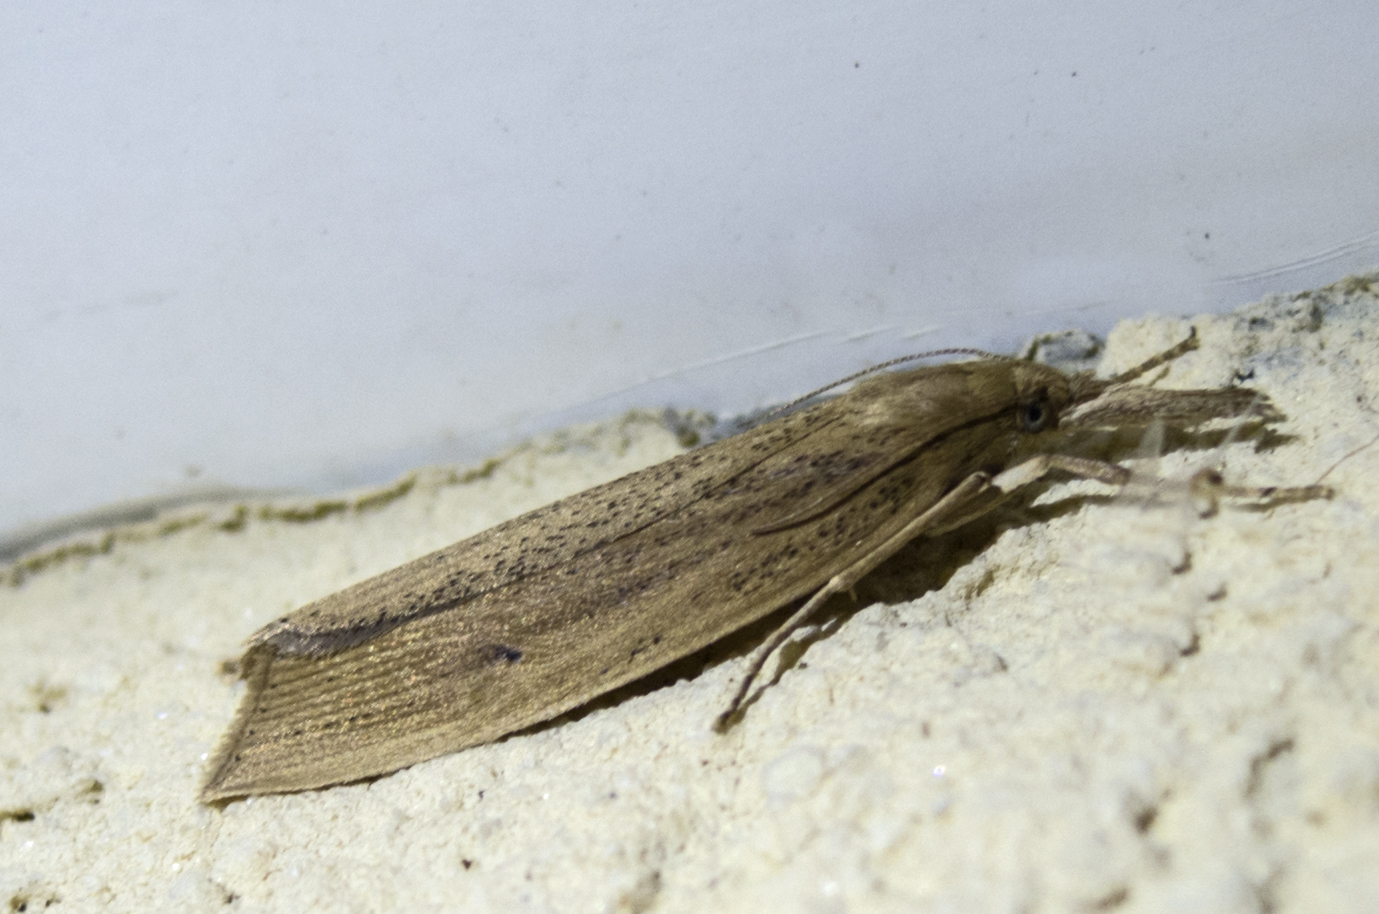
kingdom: Animalia
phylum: Arthropoda
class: Insecta
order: Lepidoptera
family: Crambidae
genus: Chilo
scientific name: Chilo phragmitella
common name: Reed veneer
